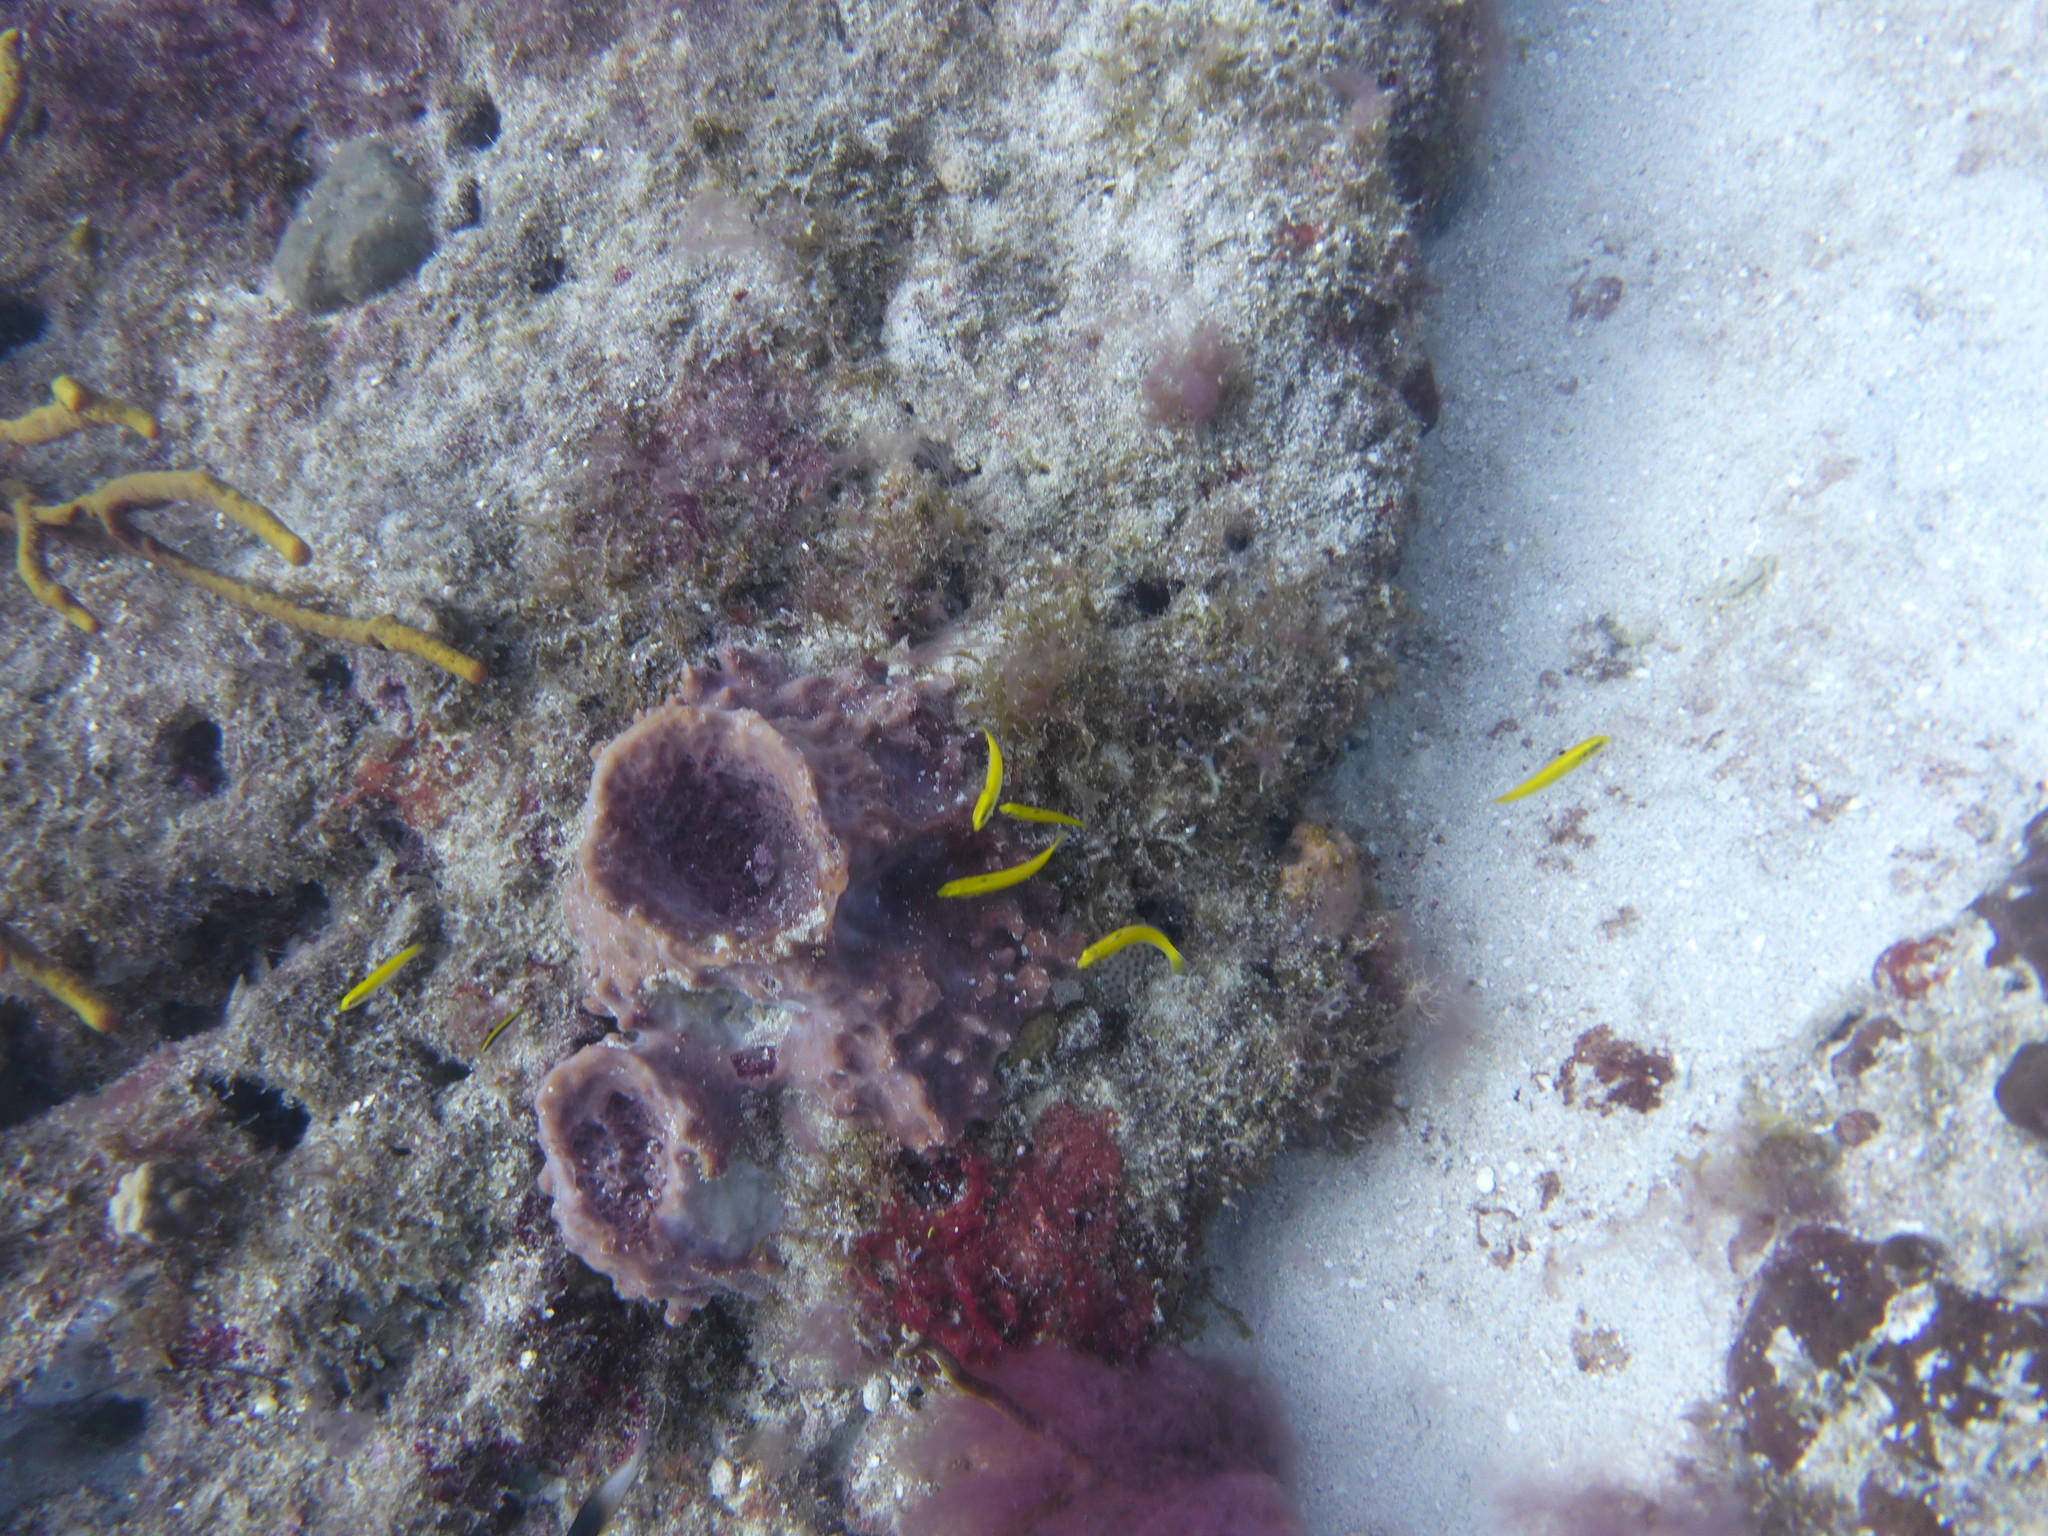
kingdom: Animalia
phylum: Chordata
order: Perciformes
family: Labridae
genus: Thalassoma
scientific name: Thalassoma bifasciatum
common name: Bluehead wrasse
